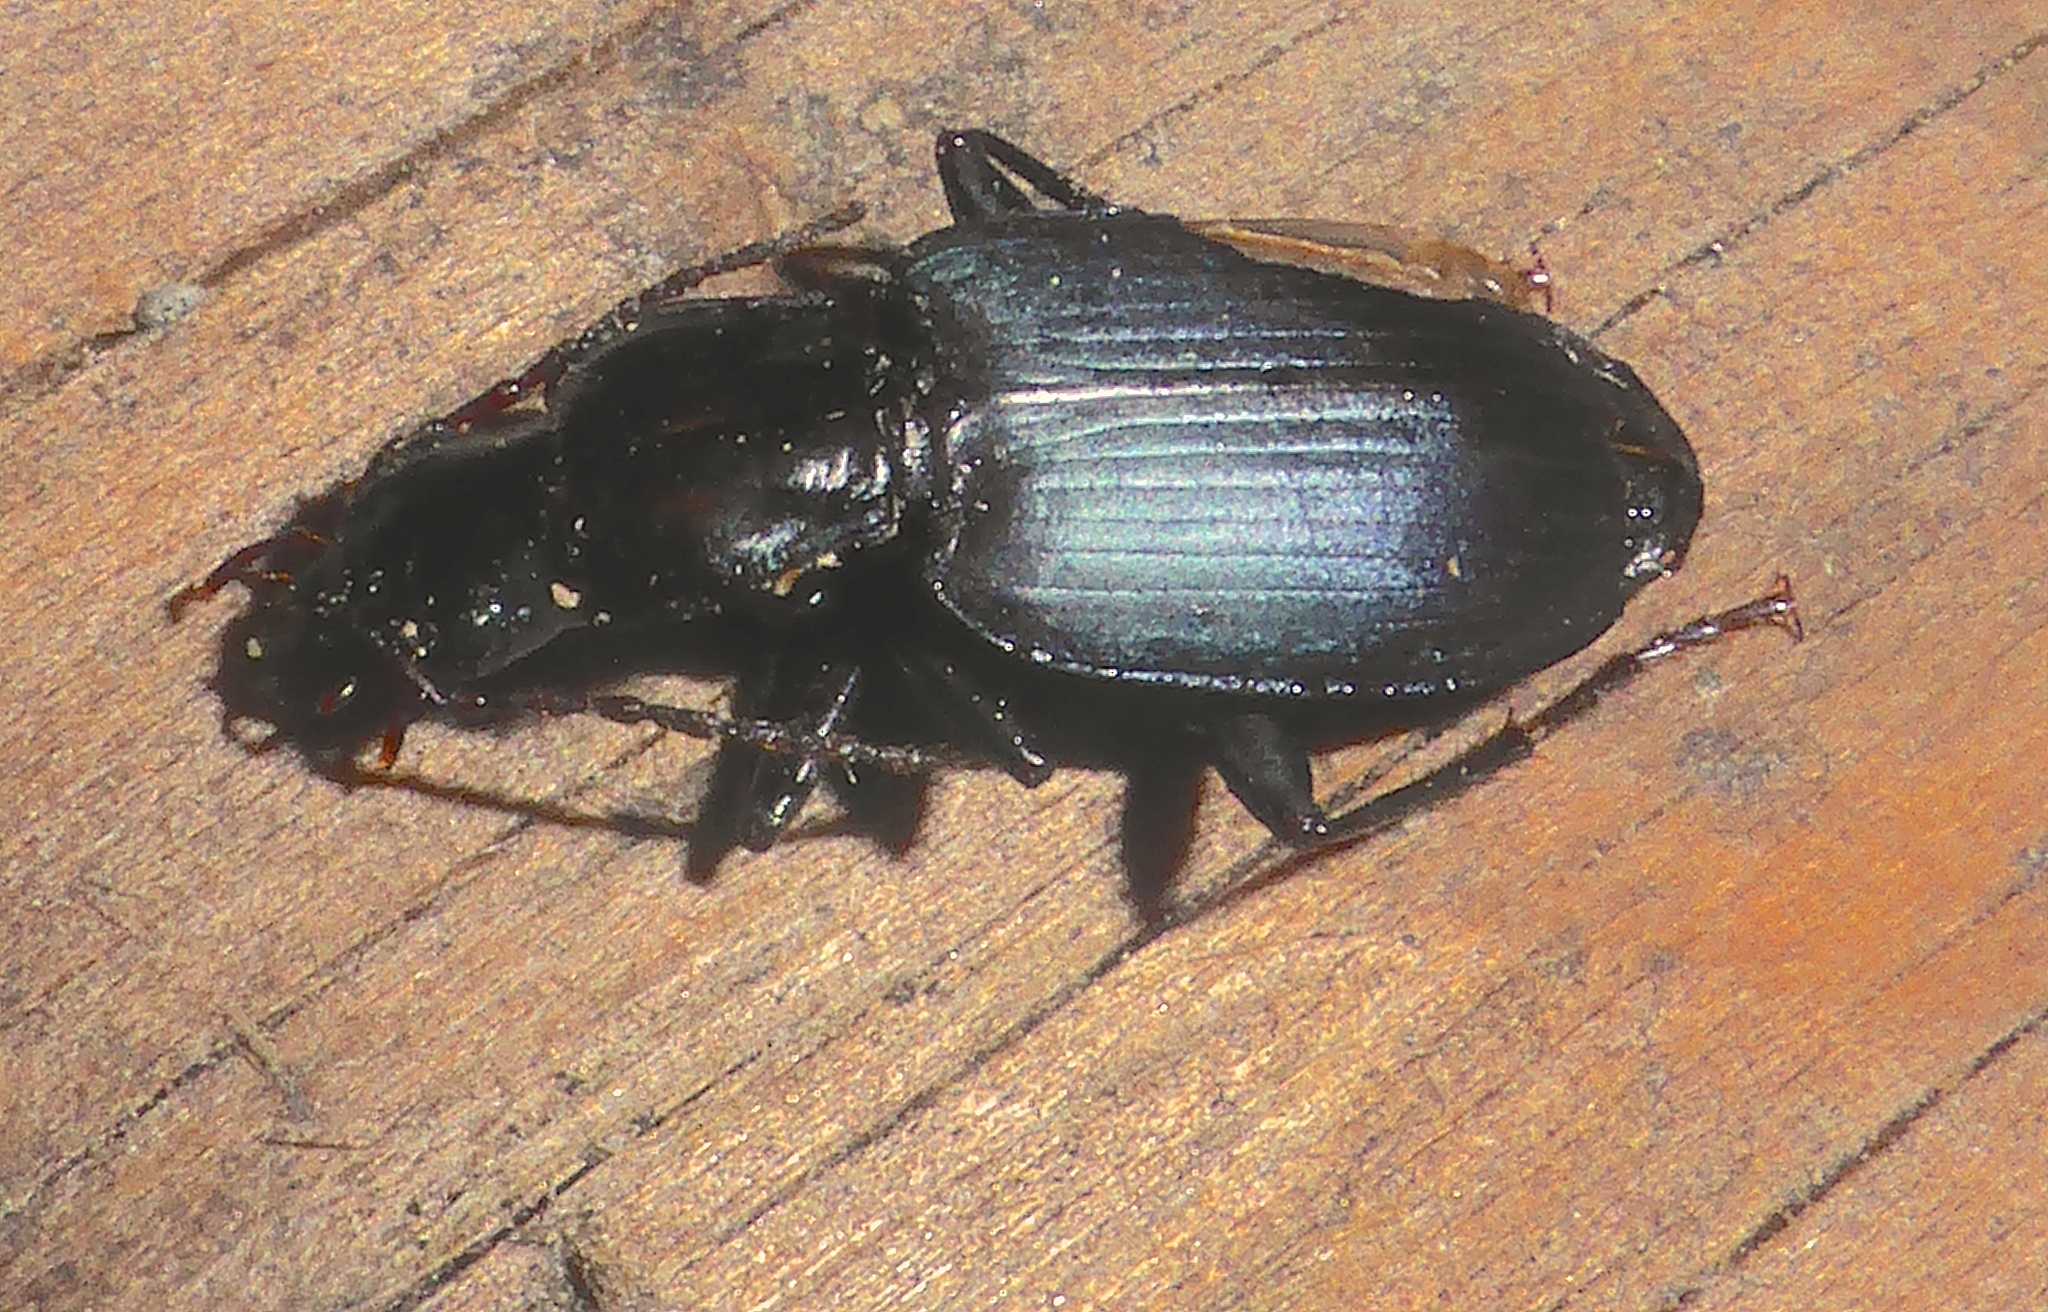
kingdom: Animalia
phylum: Arthropoda
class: Insecta
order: Coleoptera
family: Carabidae
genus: Laemostenus
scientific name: Laemostenus complanatus
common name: Cosmopolitan ground beetle
